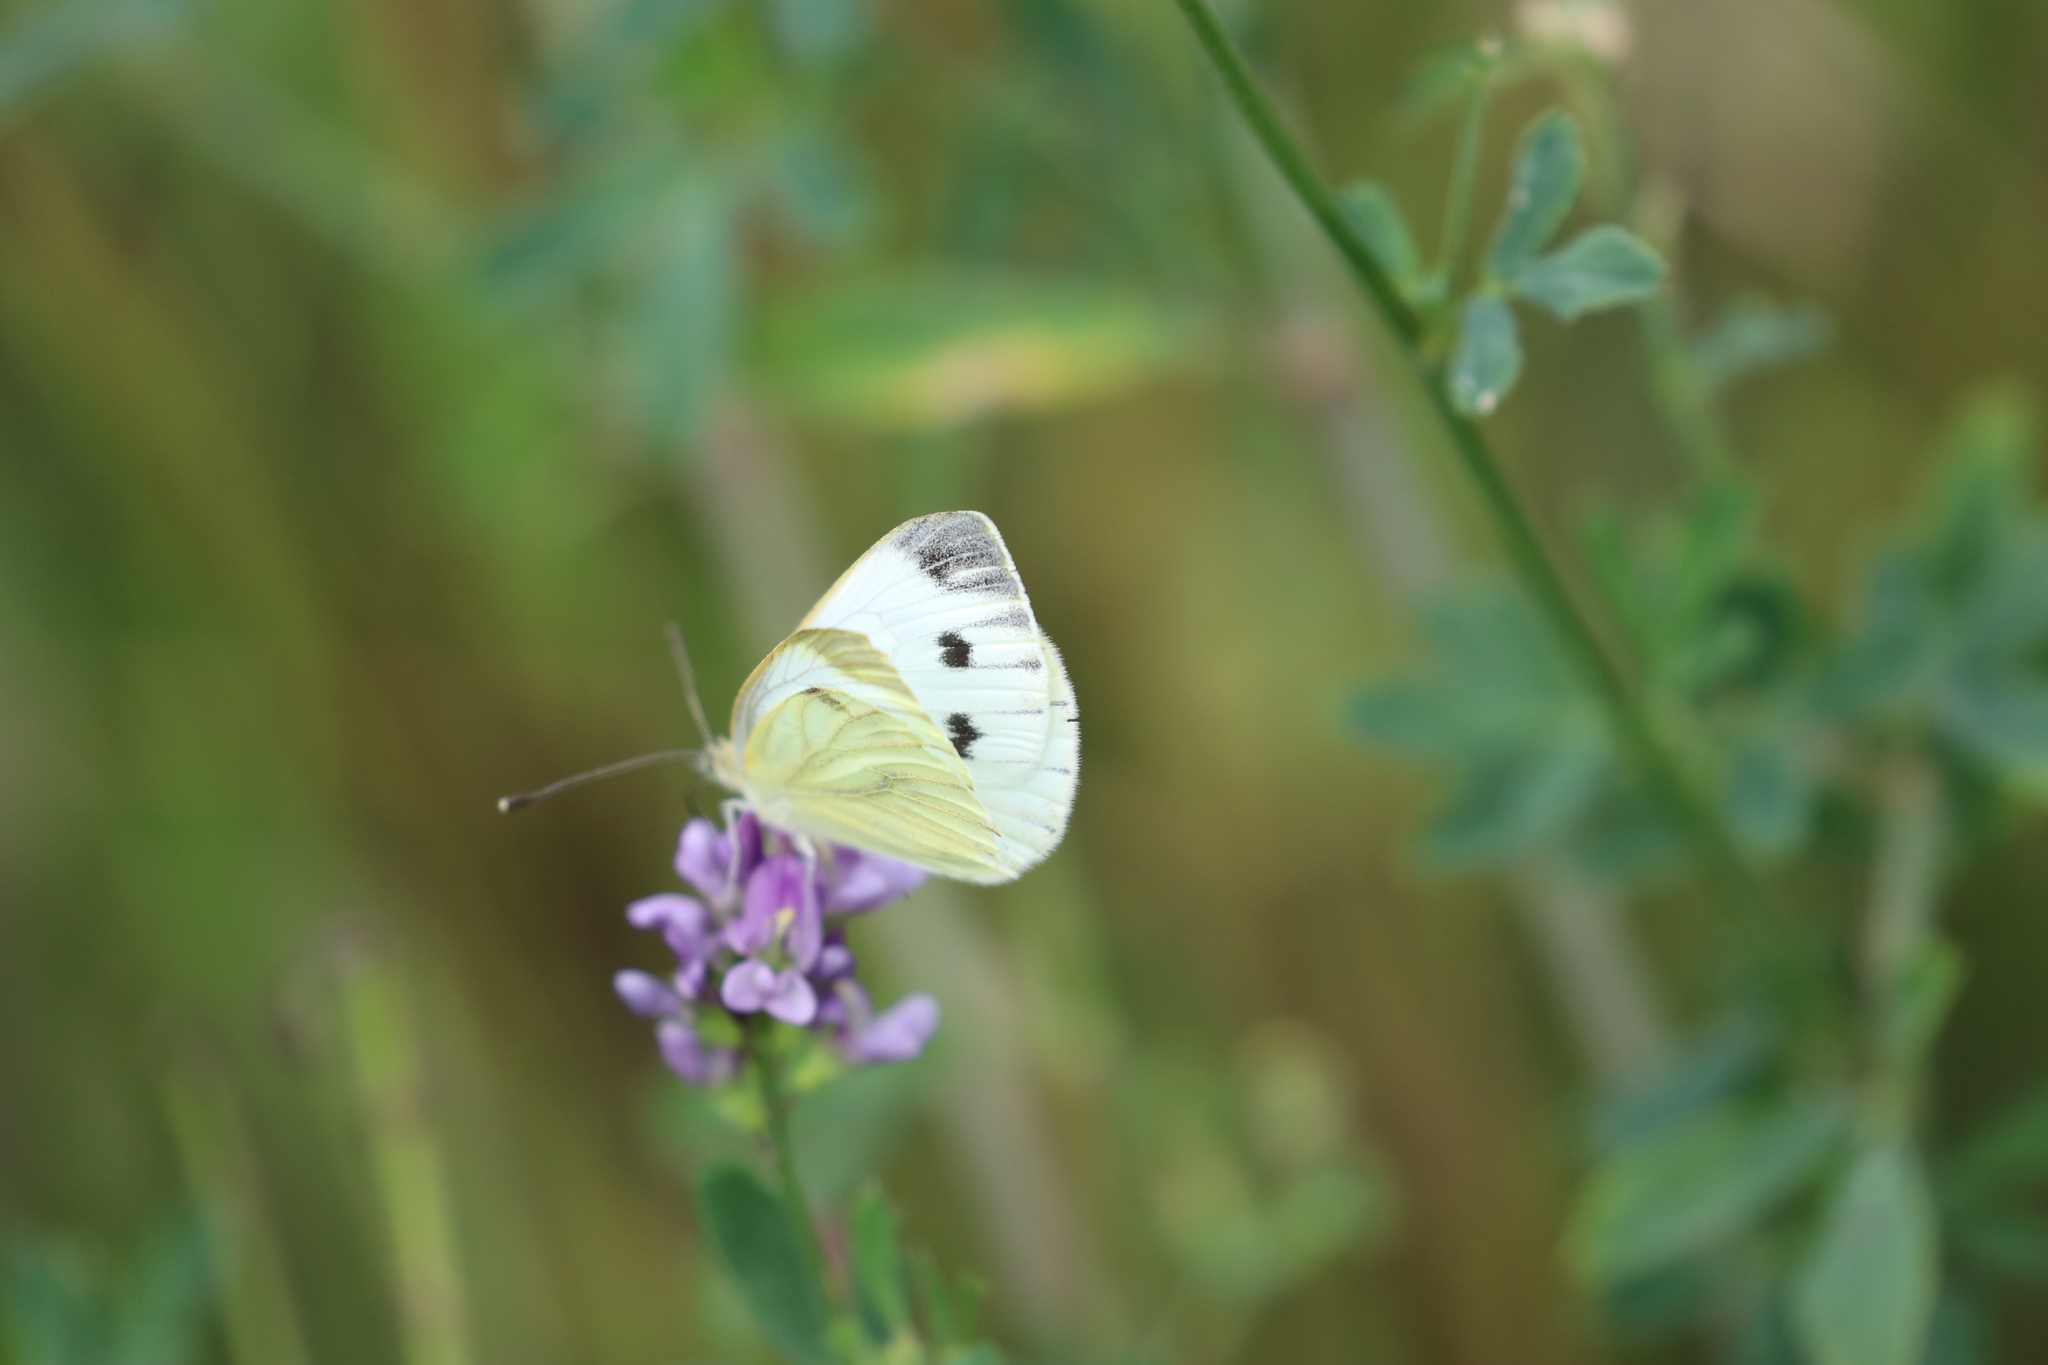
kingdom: Animalia
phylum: Arthropoda
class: Insecta
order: Lepidoptera
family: Pieridae
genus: Pieris
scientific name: Pieris napi
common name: Green-veined white
